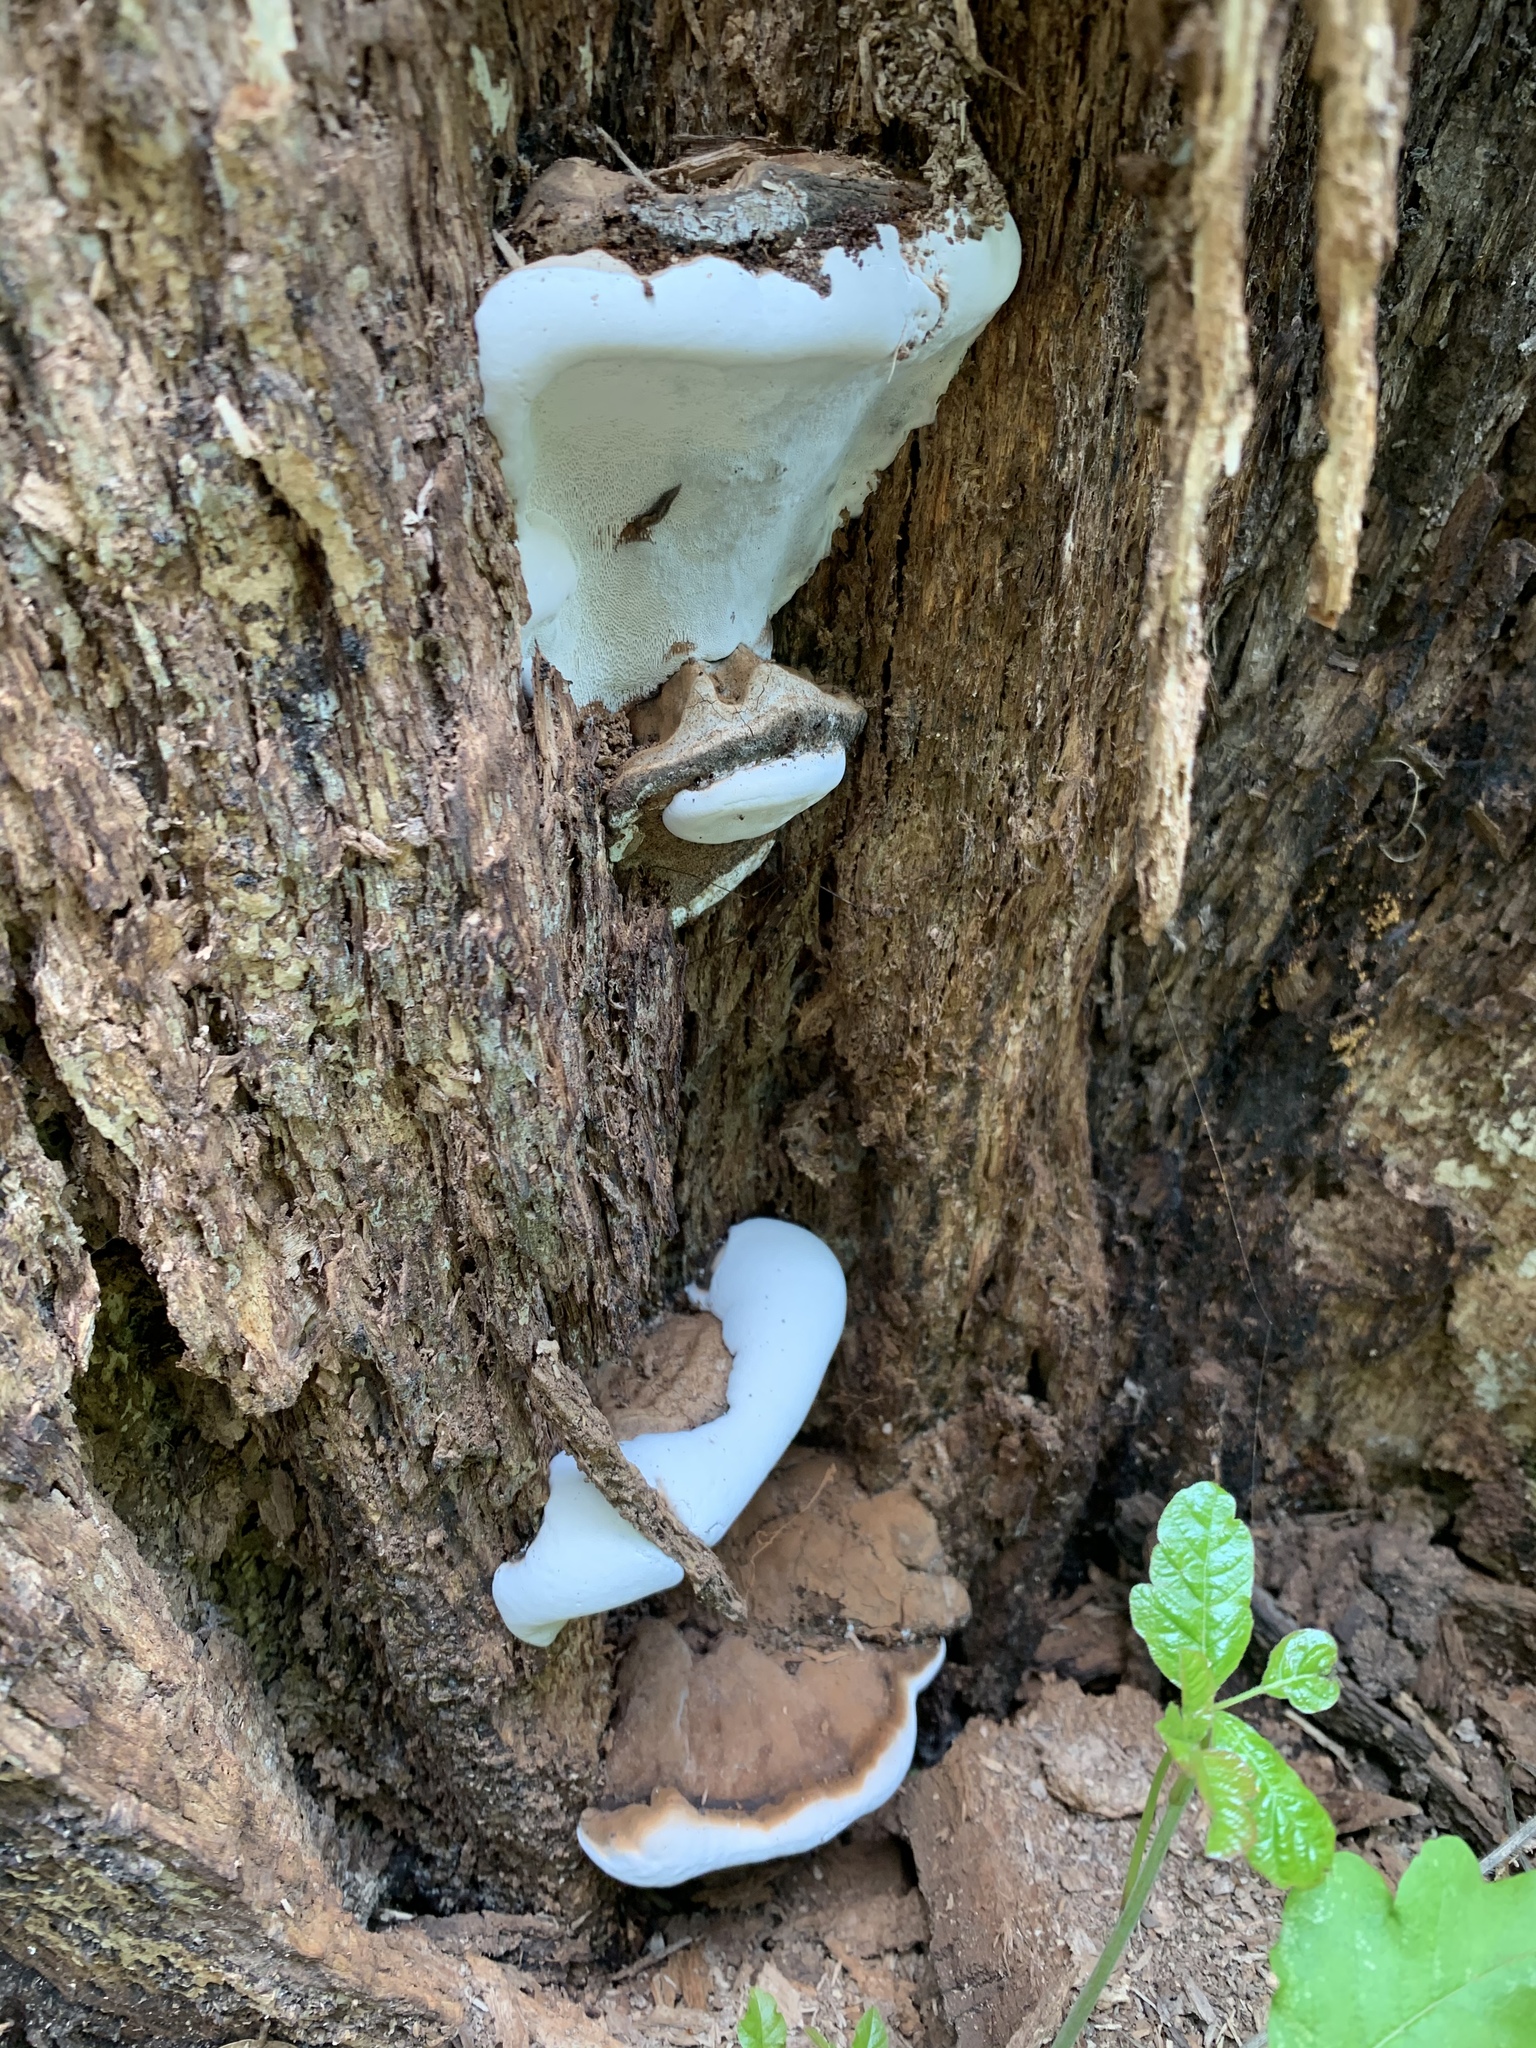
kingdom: Fungi
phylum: Basidiomycota
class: Agaricomycetes
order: Polyporales
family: Polyporaceae
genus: Ganoderma
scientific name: Ganoderma brownii
